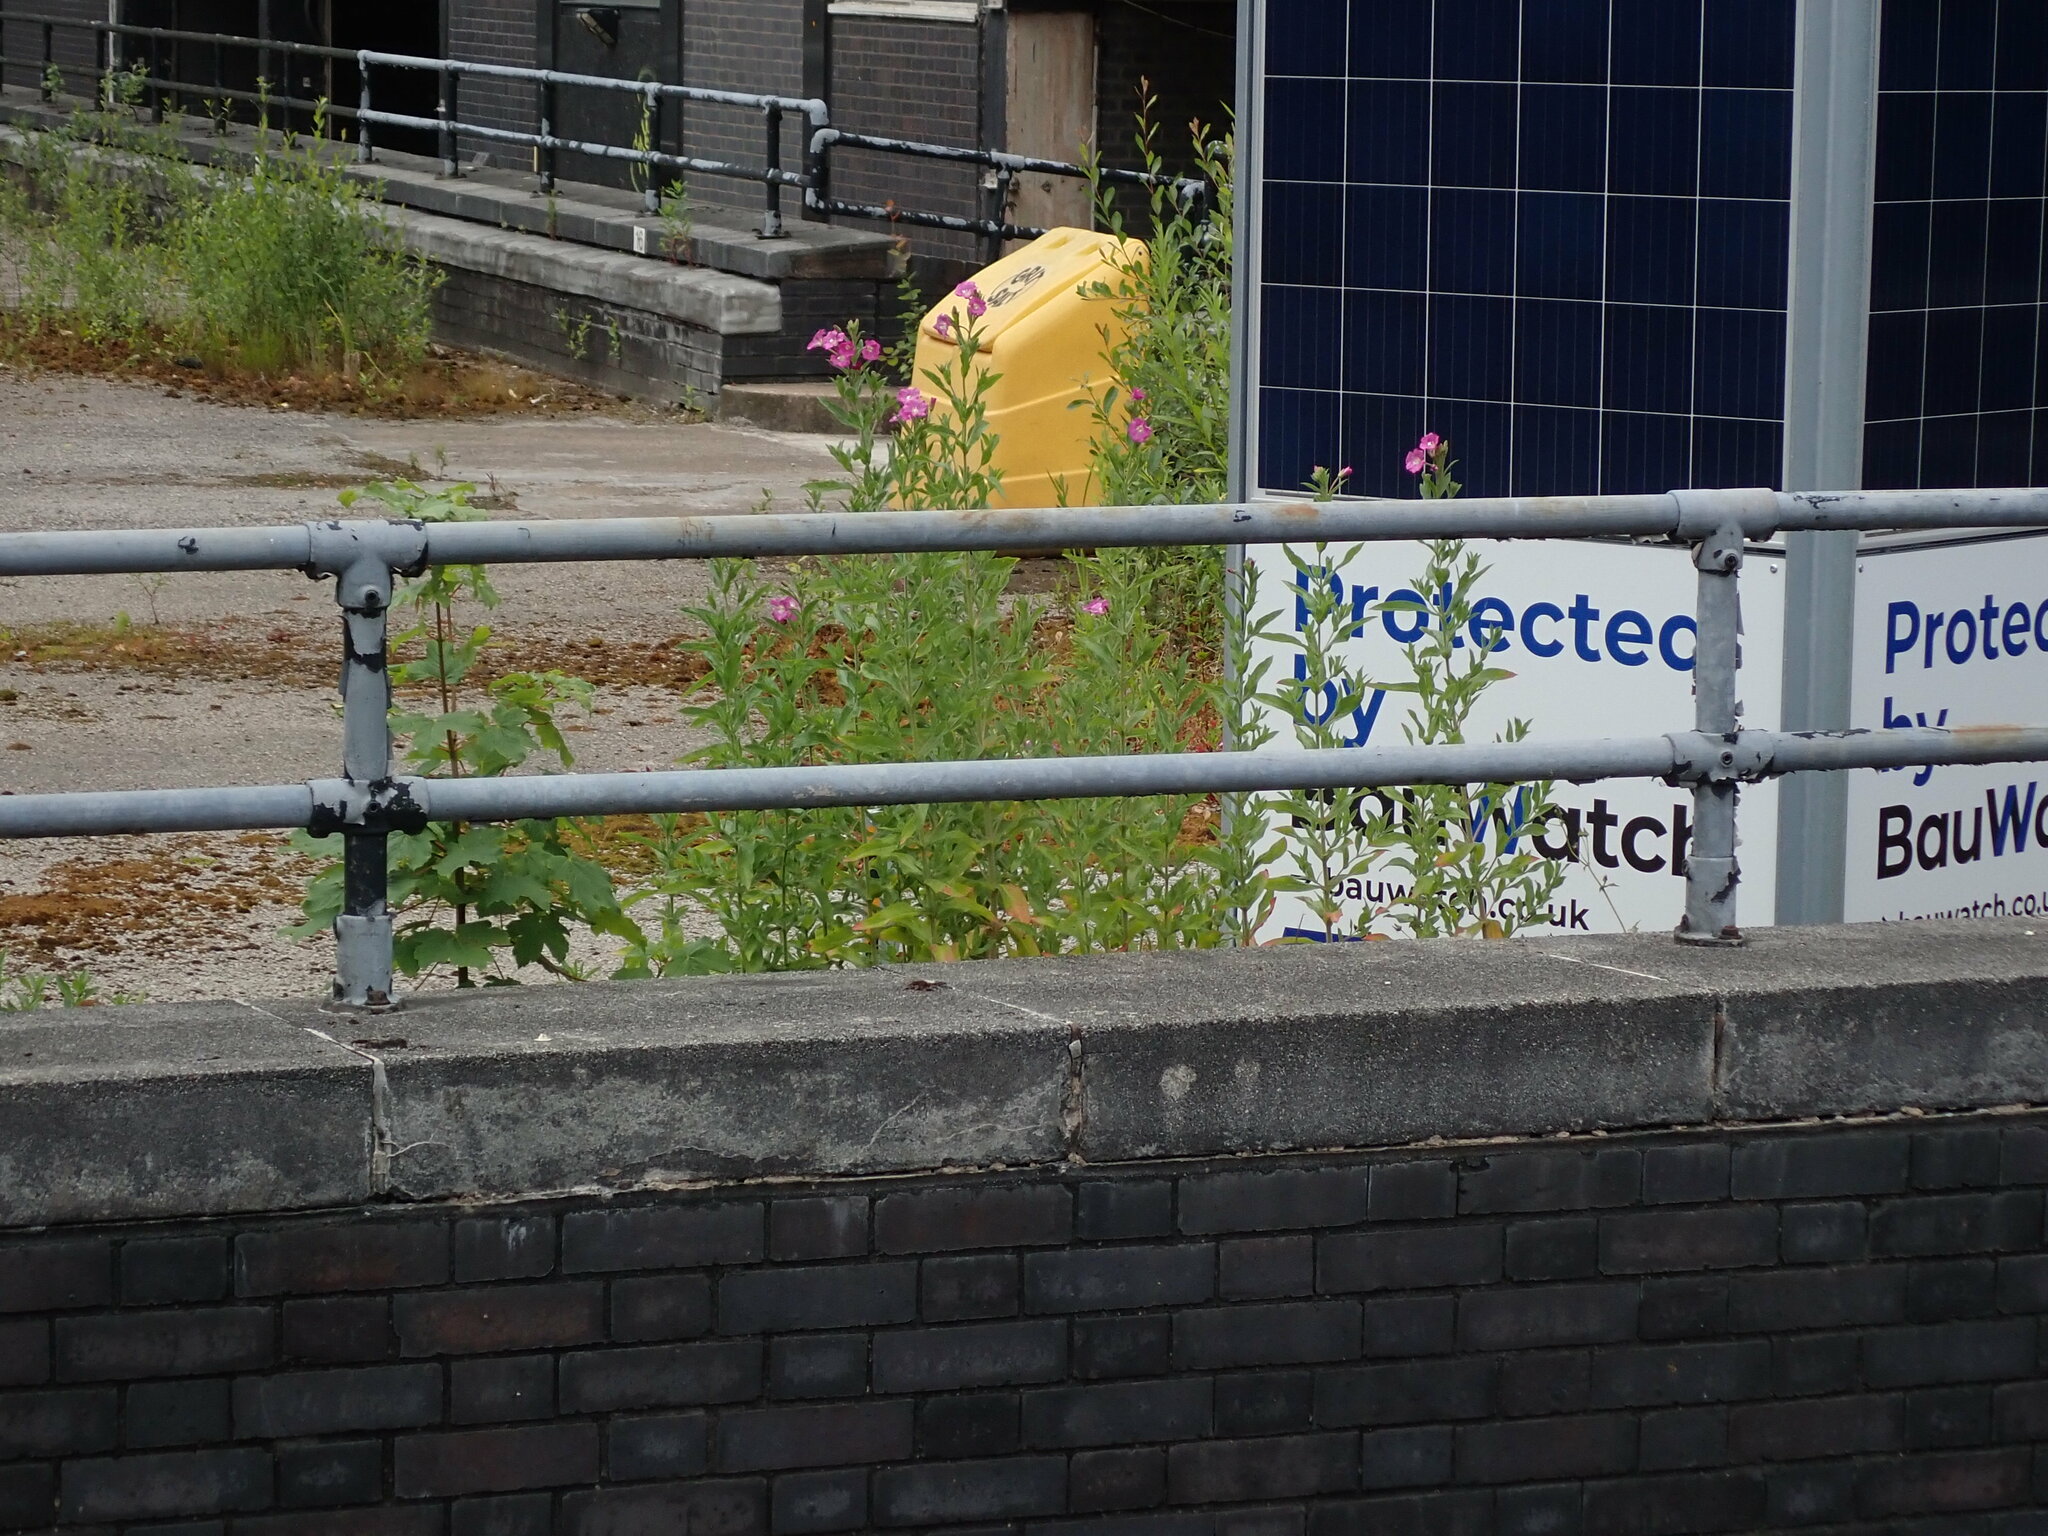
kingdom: Plantae
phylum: Tracheophyta
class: Magnoliopsida
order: Myrtales
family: Onagraceae
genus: Epilobium
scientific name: Epilobium hirsutum
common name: Great willowherb
